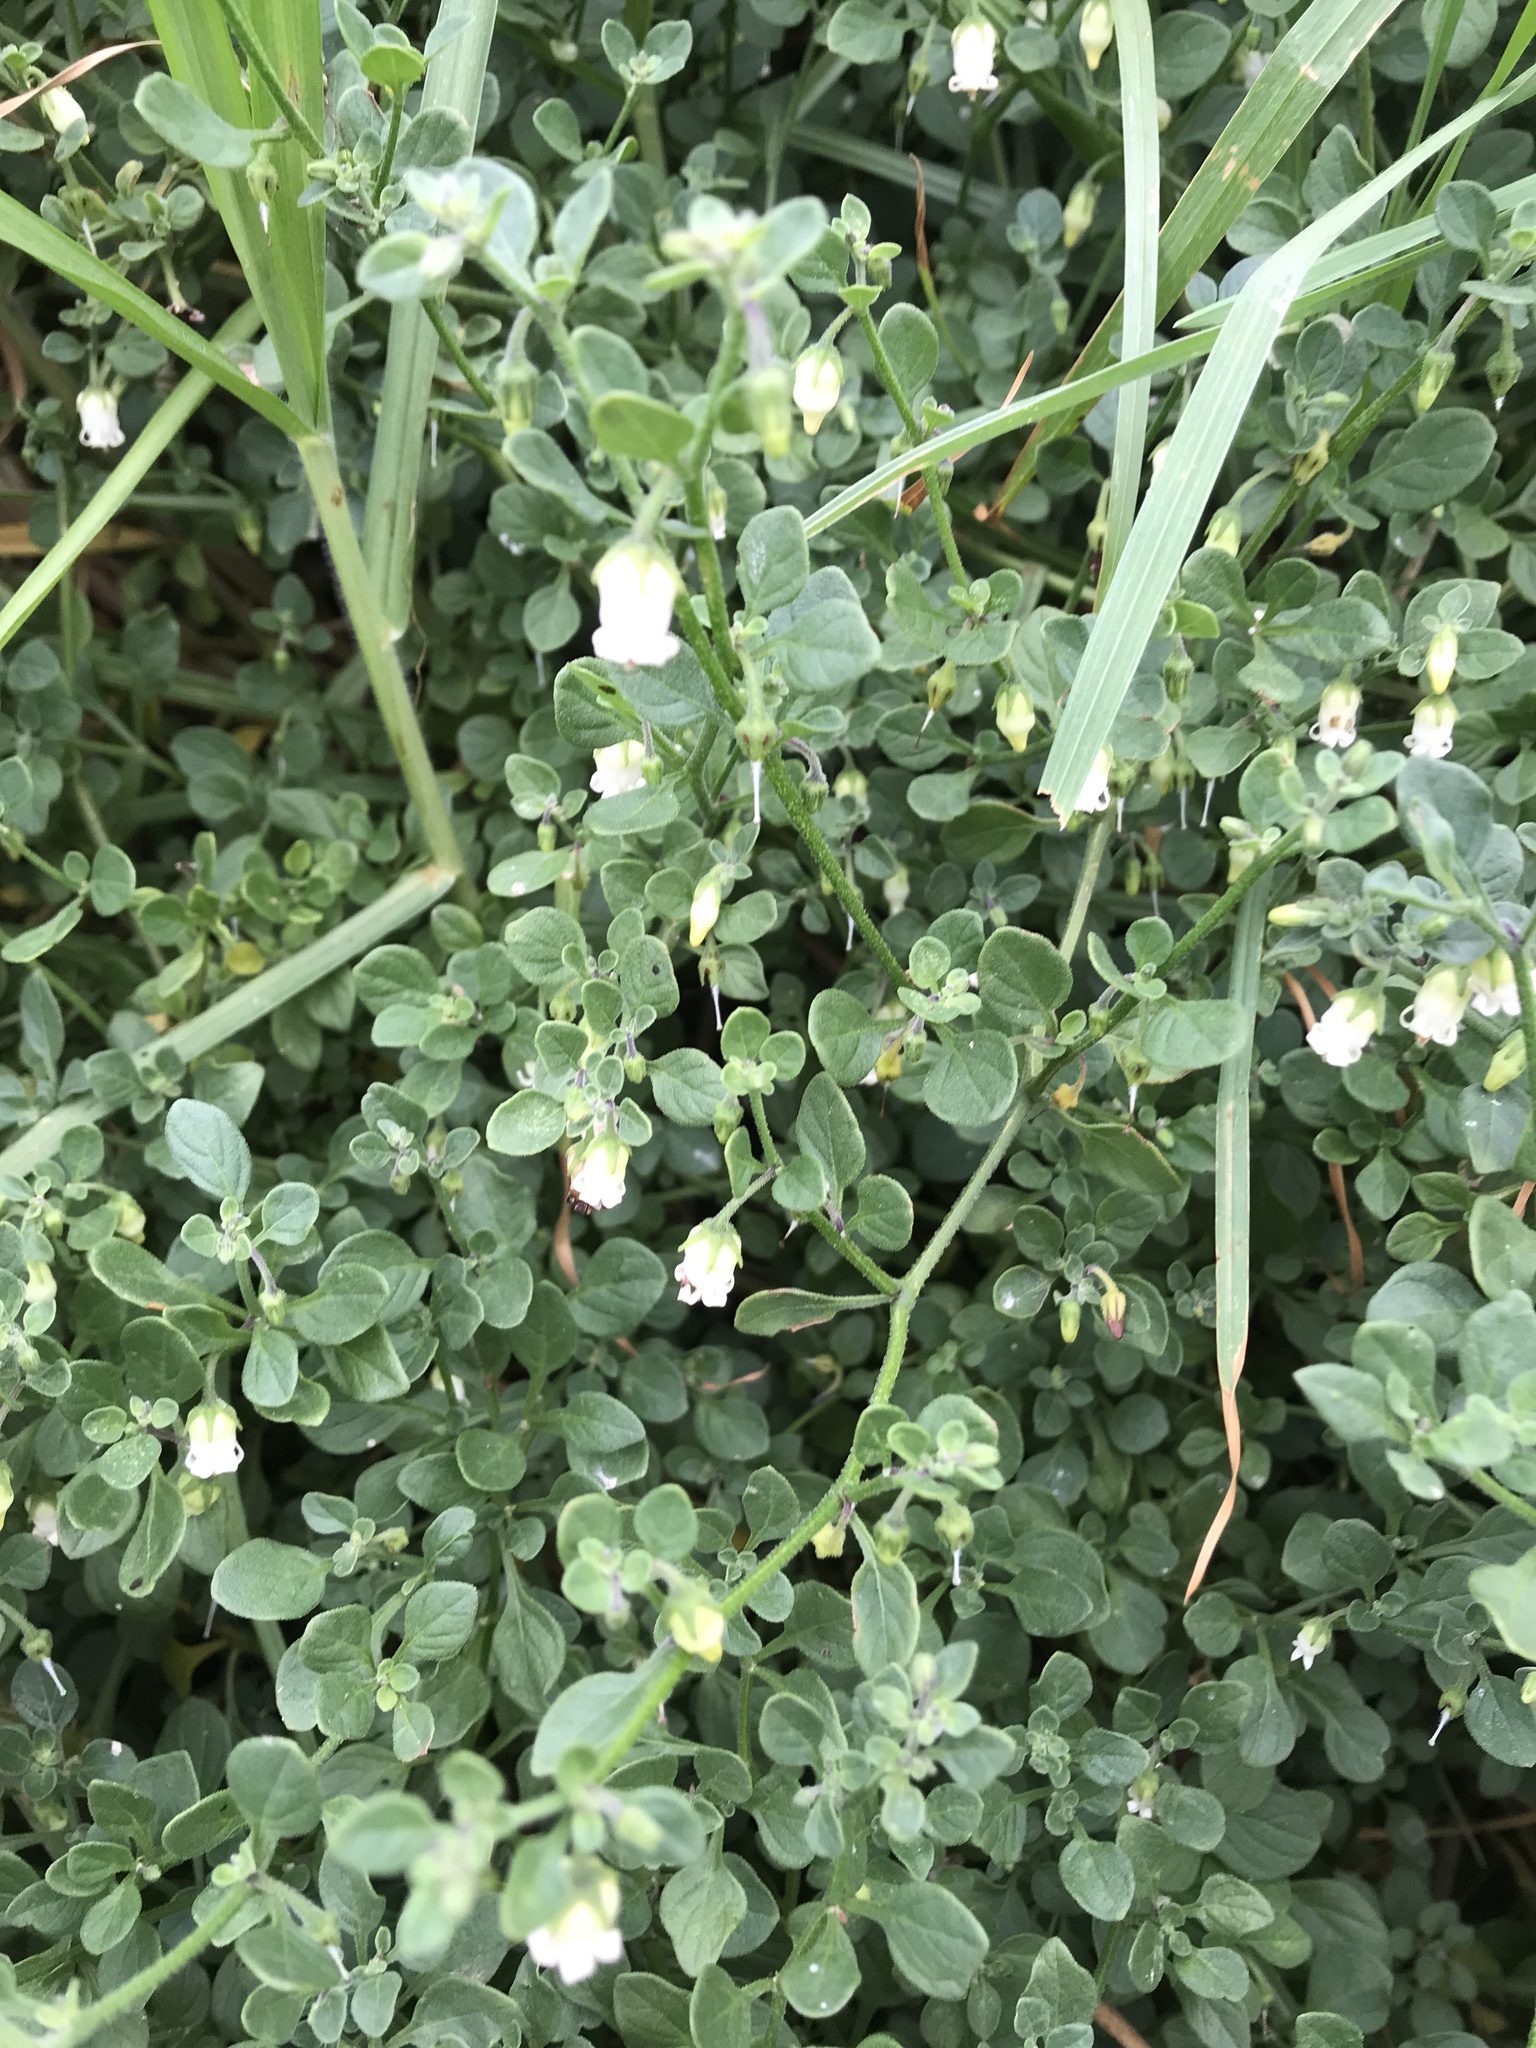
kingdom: Plantae
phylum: Tracheophyta
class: Magnoliopsida
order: Solanales
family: Solanaceae
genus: Salpichroa
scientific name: Salpichroa origanifolia
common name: Lily-of-the-valley-vine
